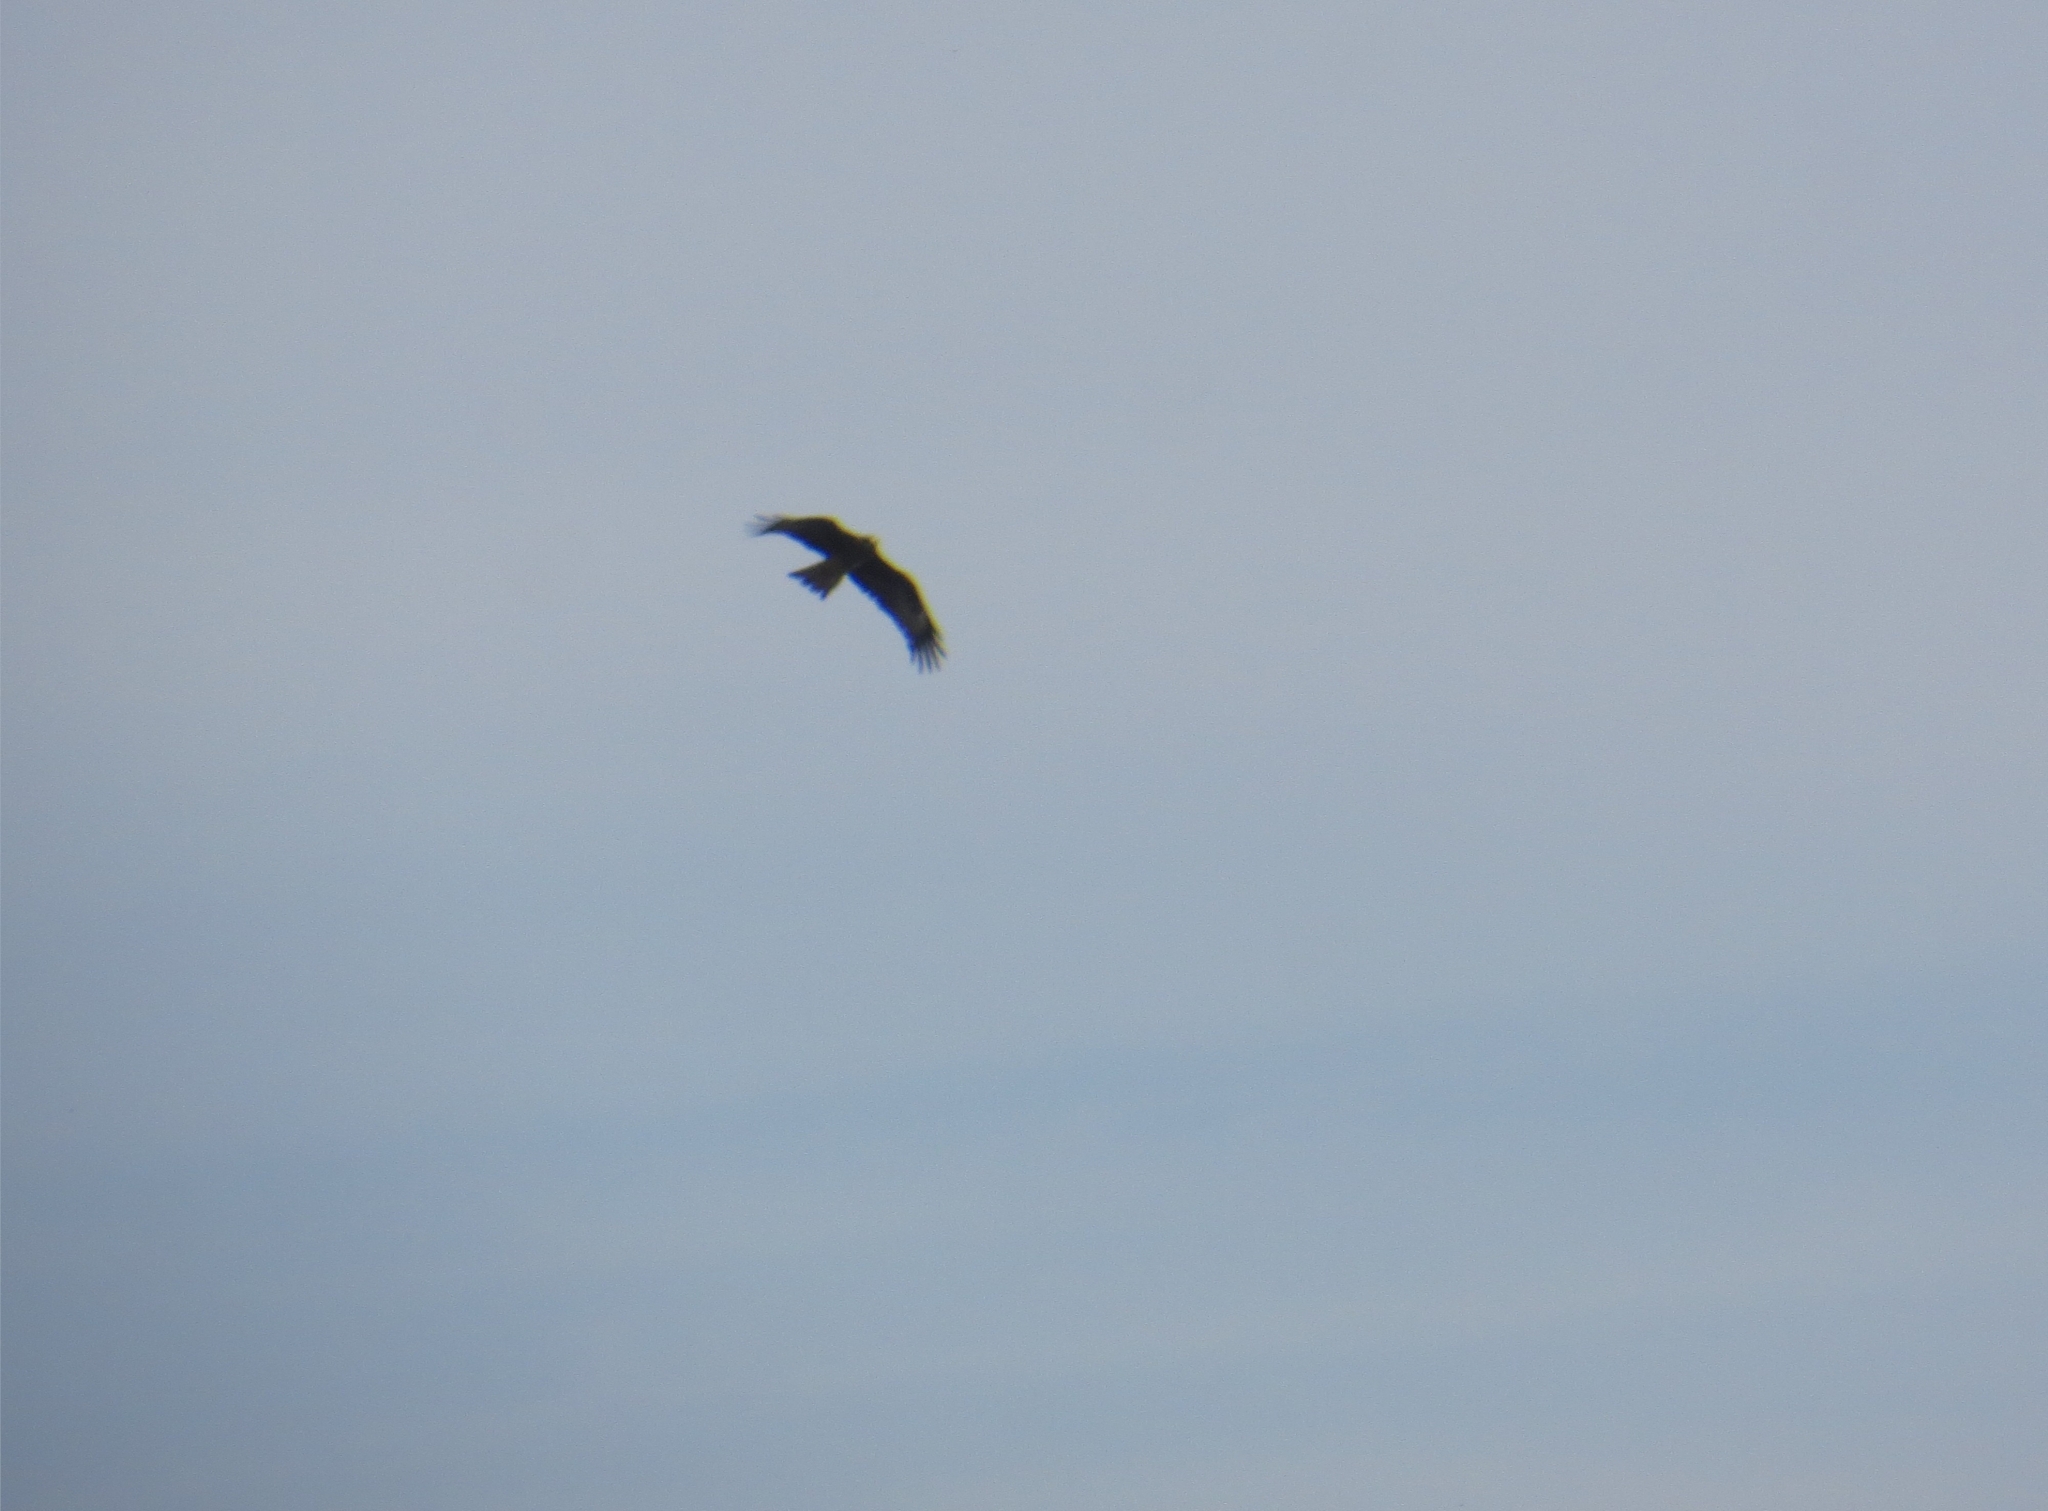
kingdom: Animalia
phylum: Chordata
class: Aves
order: Accipitriformes
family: Accipitridae
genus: Milvus
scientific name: Milvus migrans
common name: Black kite
